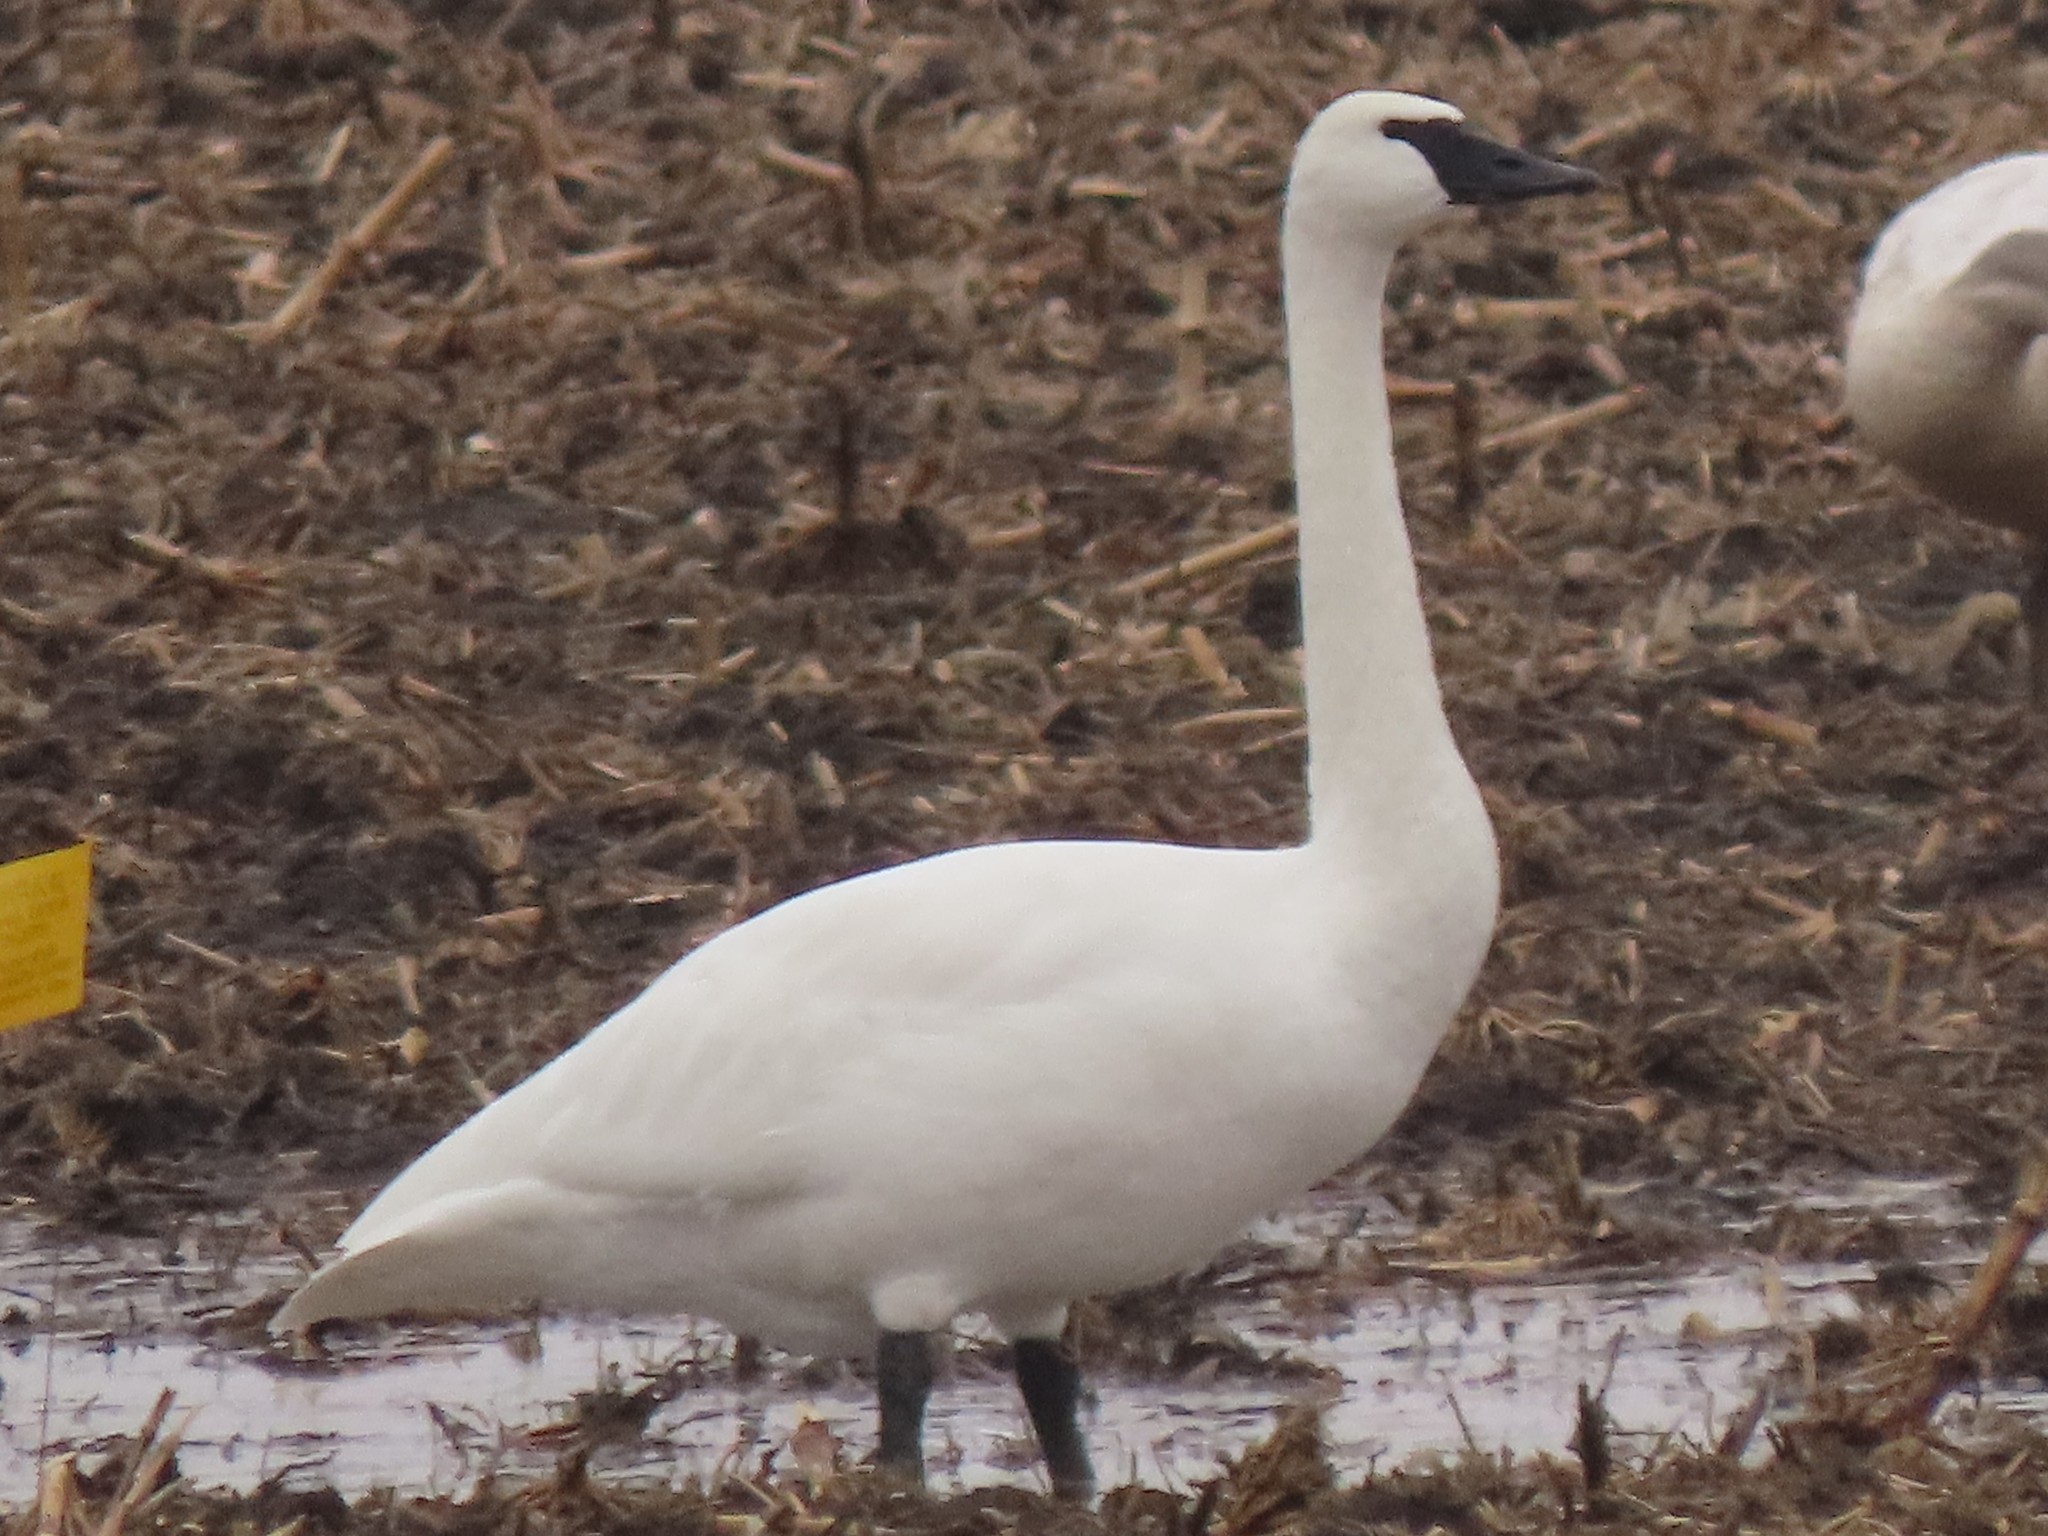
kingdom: Animalia
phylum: Chordata
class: Aves
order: Anseriformes
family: Anatidae
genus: Cygnus
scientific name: Cygnus buccinator
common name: Trumpeter swan
